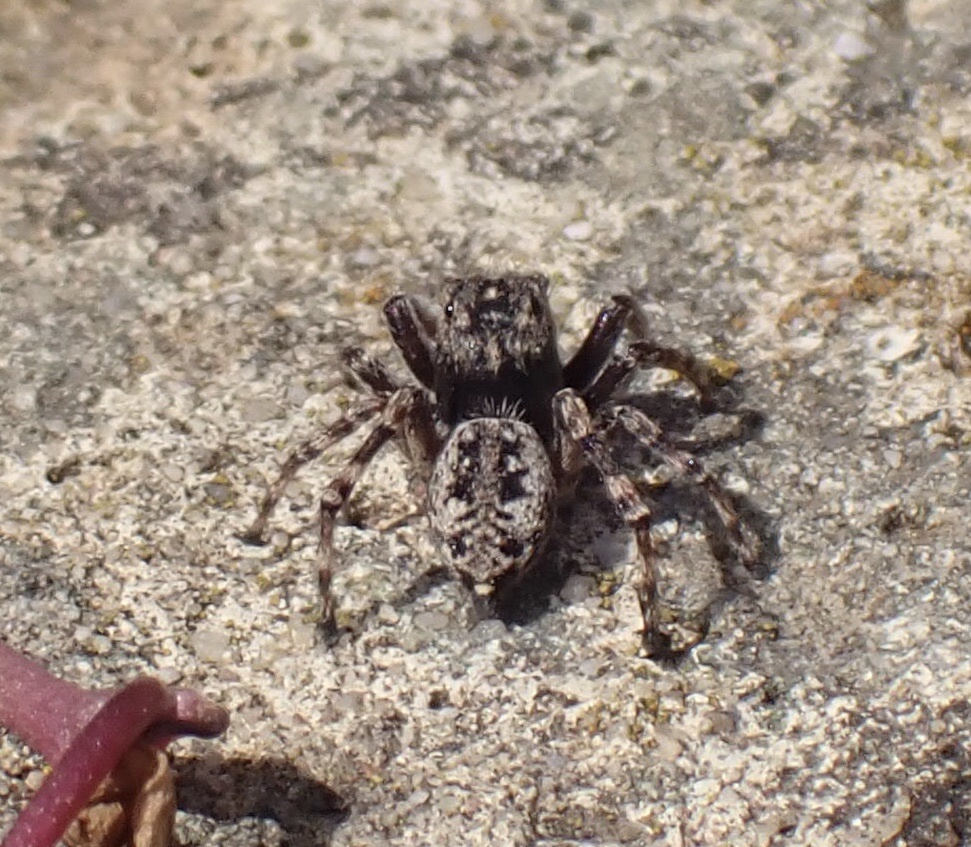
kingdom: Animalia
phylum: Arthropoda
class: Arachnida
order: Araneae
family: Salticidae
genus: Attulus
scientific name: Attulus pubescens
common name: Jumping spider
